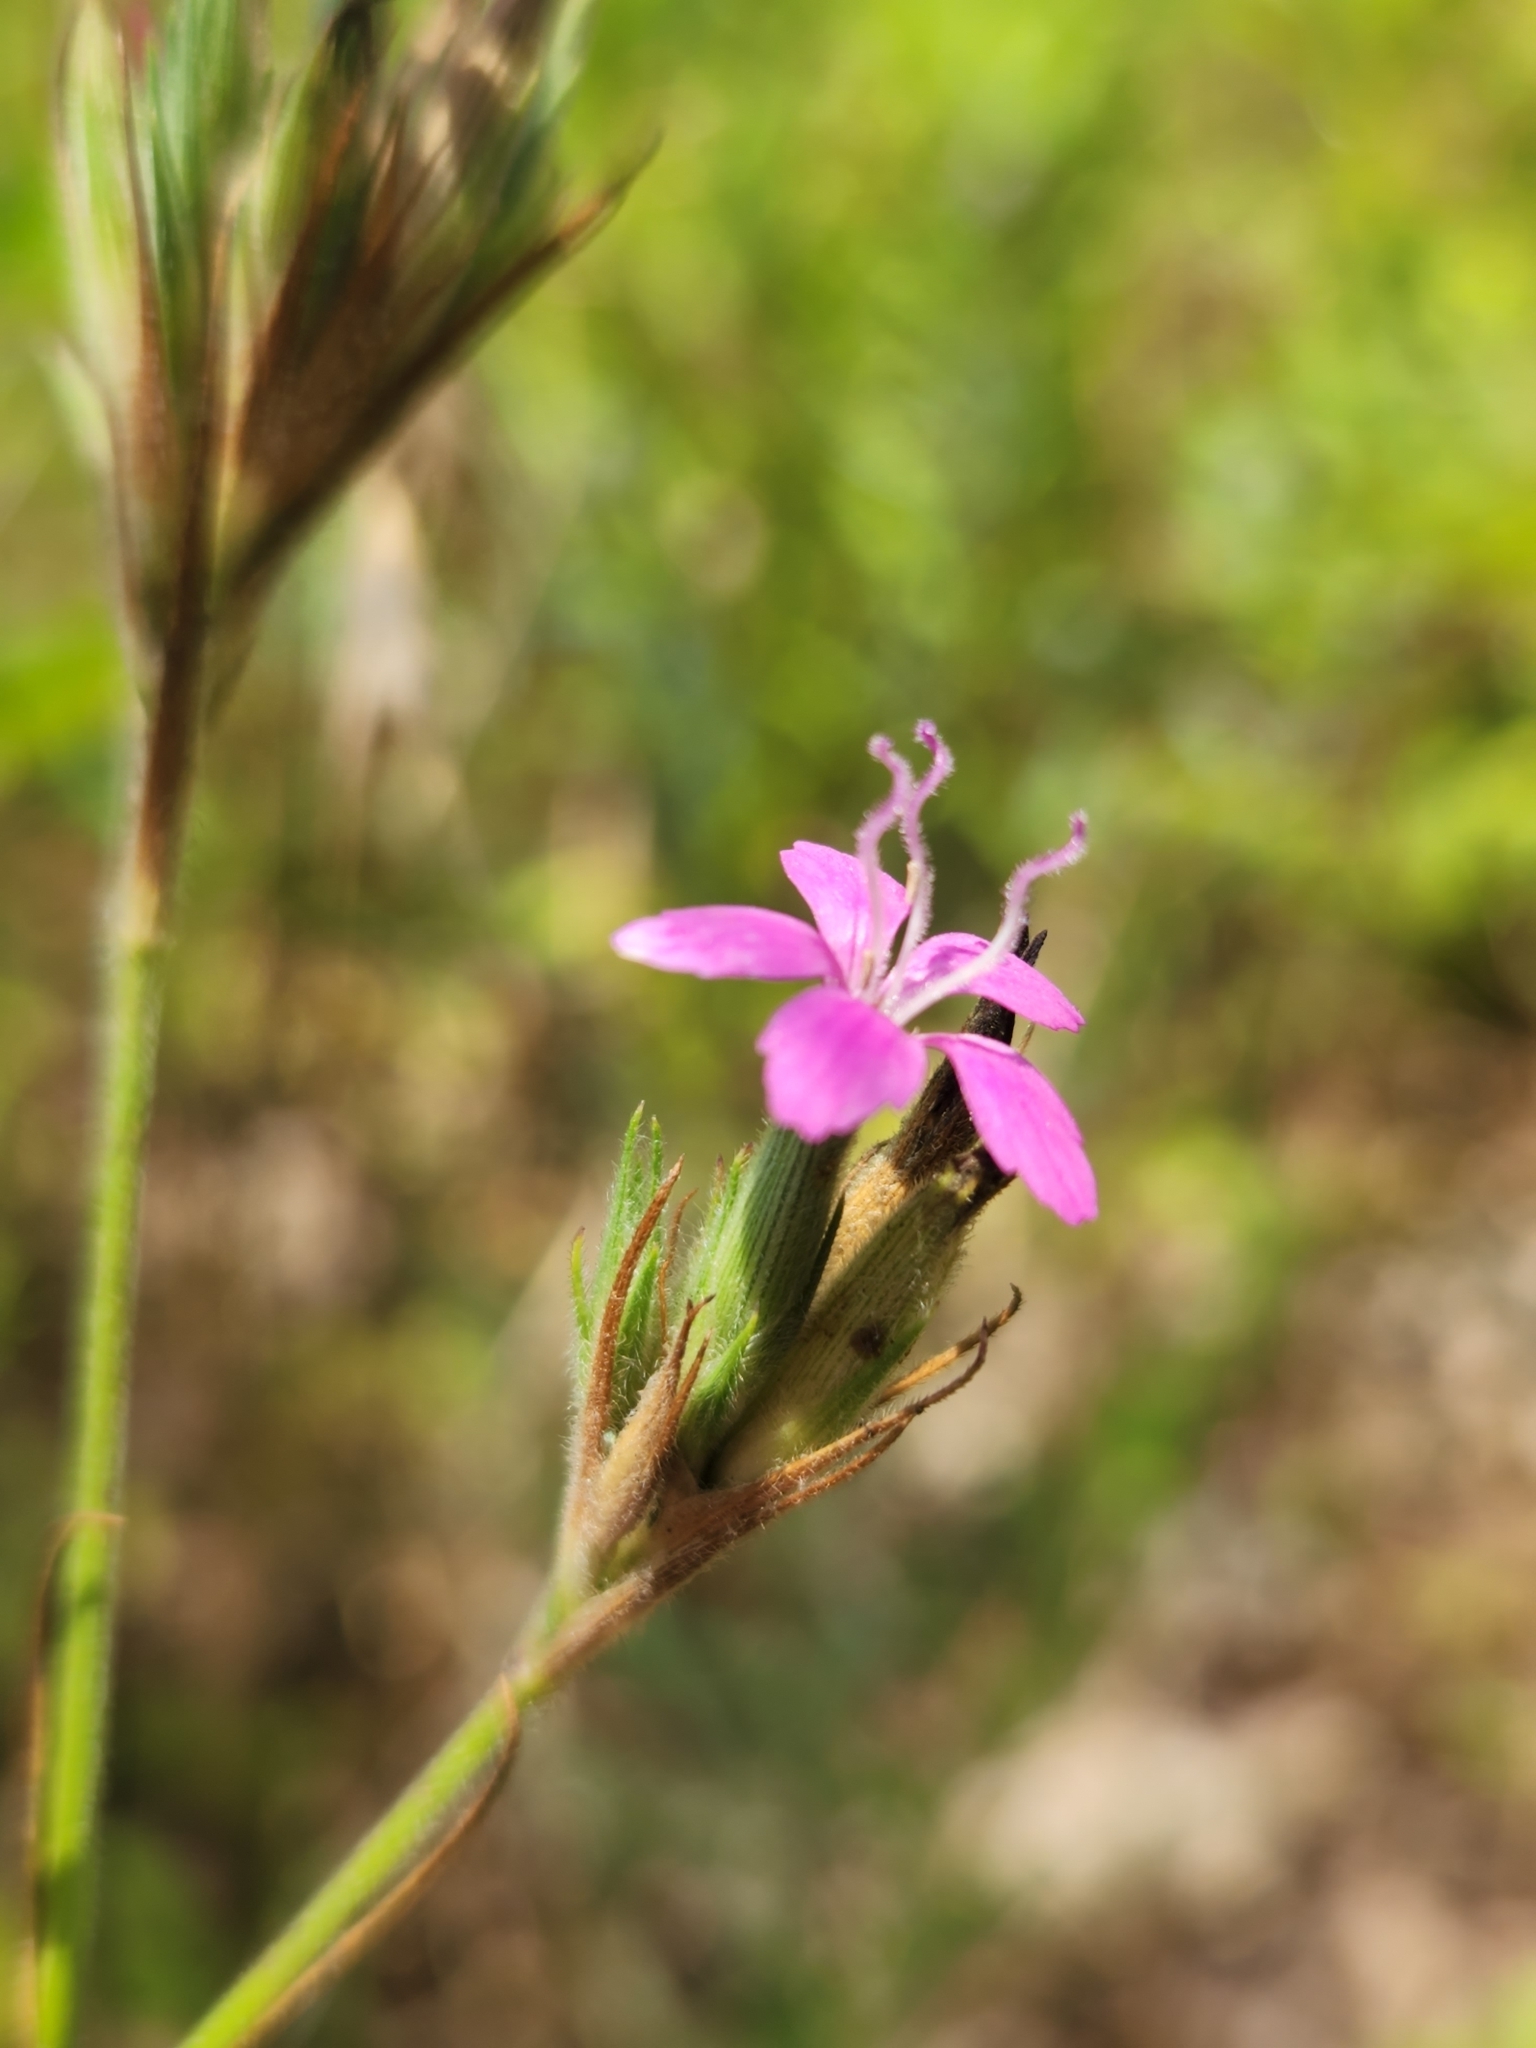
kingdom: Plantae
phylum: Tracheophyta
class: Magnoliopsida
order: Caryophyllales
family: Caryophyllaceae
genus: Dianthus
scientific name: Dianthus armeria
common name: Deptford pink
